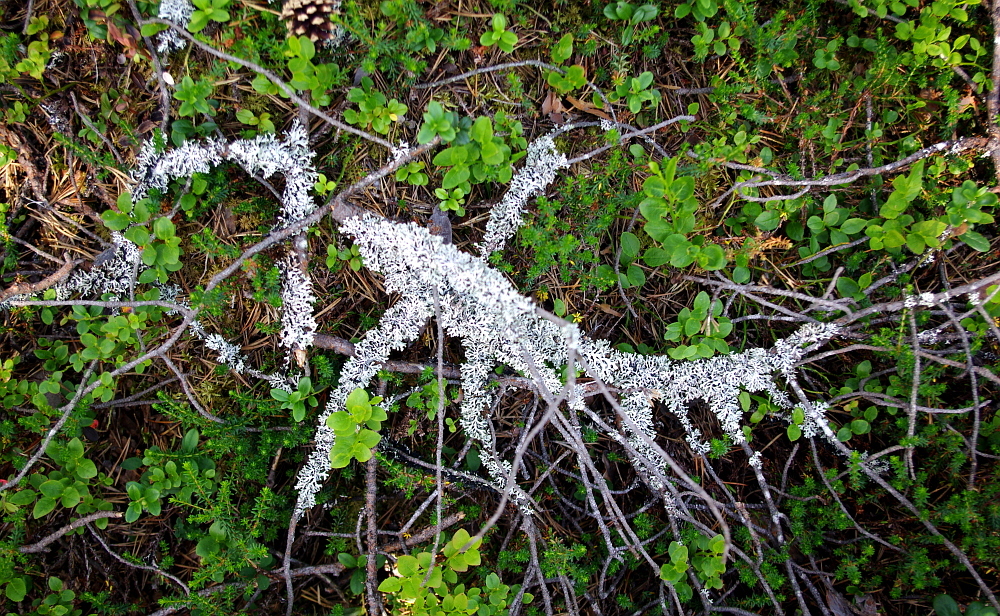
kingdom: Plantae
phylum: Tracheophyta
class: Magnoliopsida
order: Ericales
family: Ericaceae
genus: Vaccinium
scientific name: Vaccinium myrtillus
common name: Bilberry
